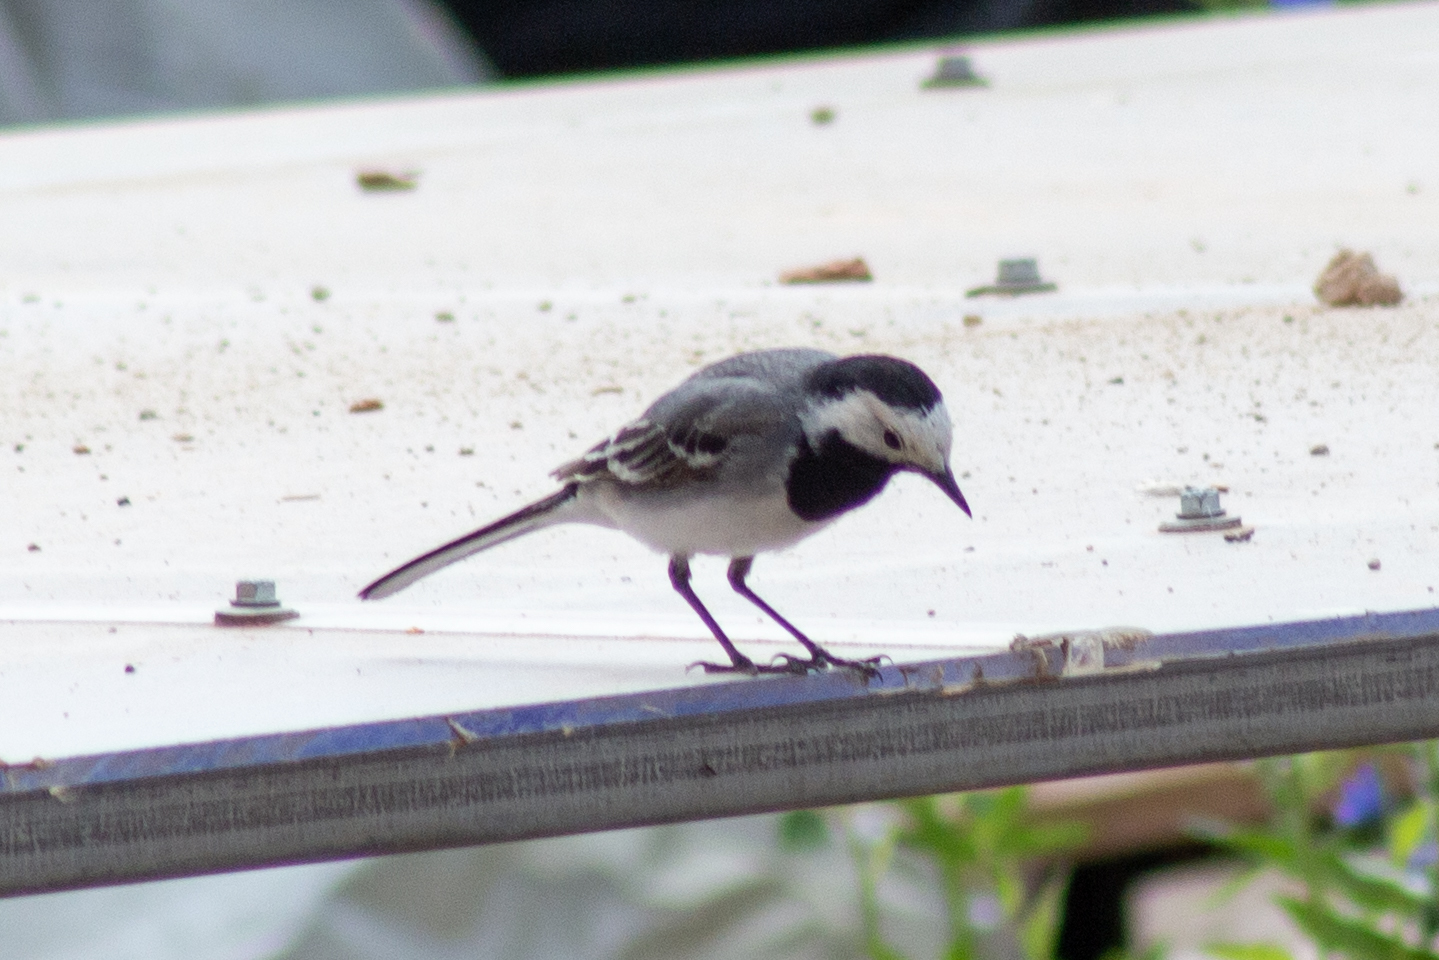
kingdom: Animalia
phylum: Chordata
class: Aves
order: Passeriformes
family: Motacillidae
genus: Motacilla
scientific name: Motacilla alba
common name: White wagtail
